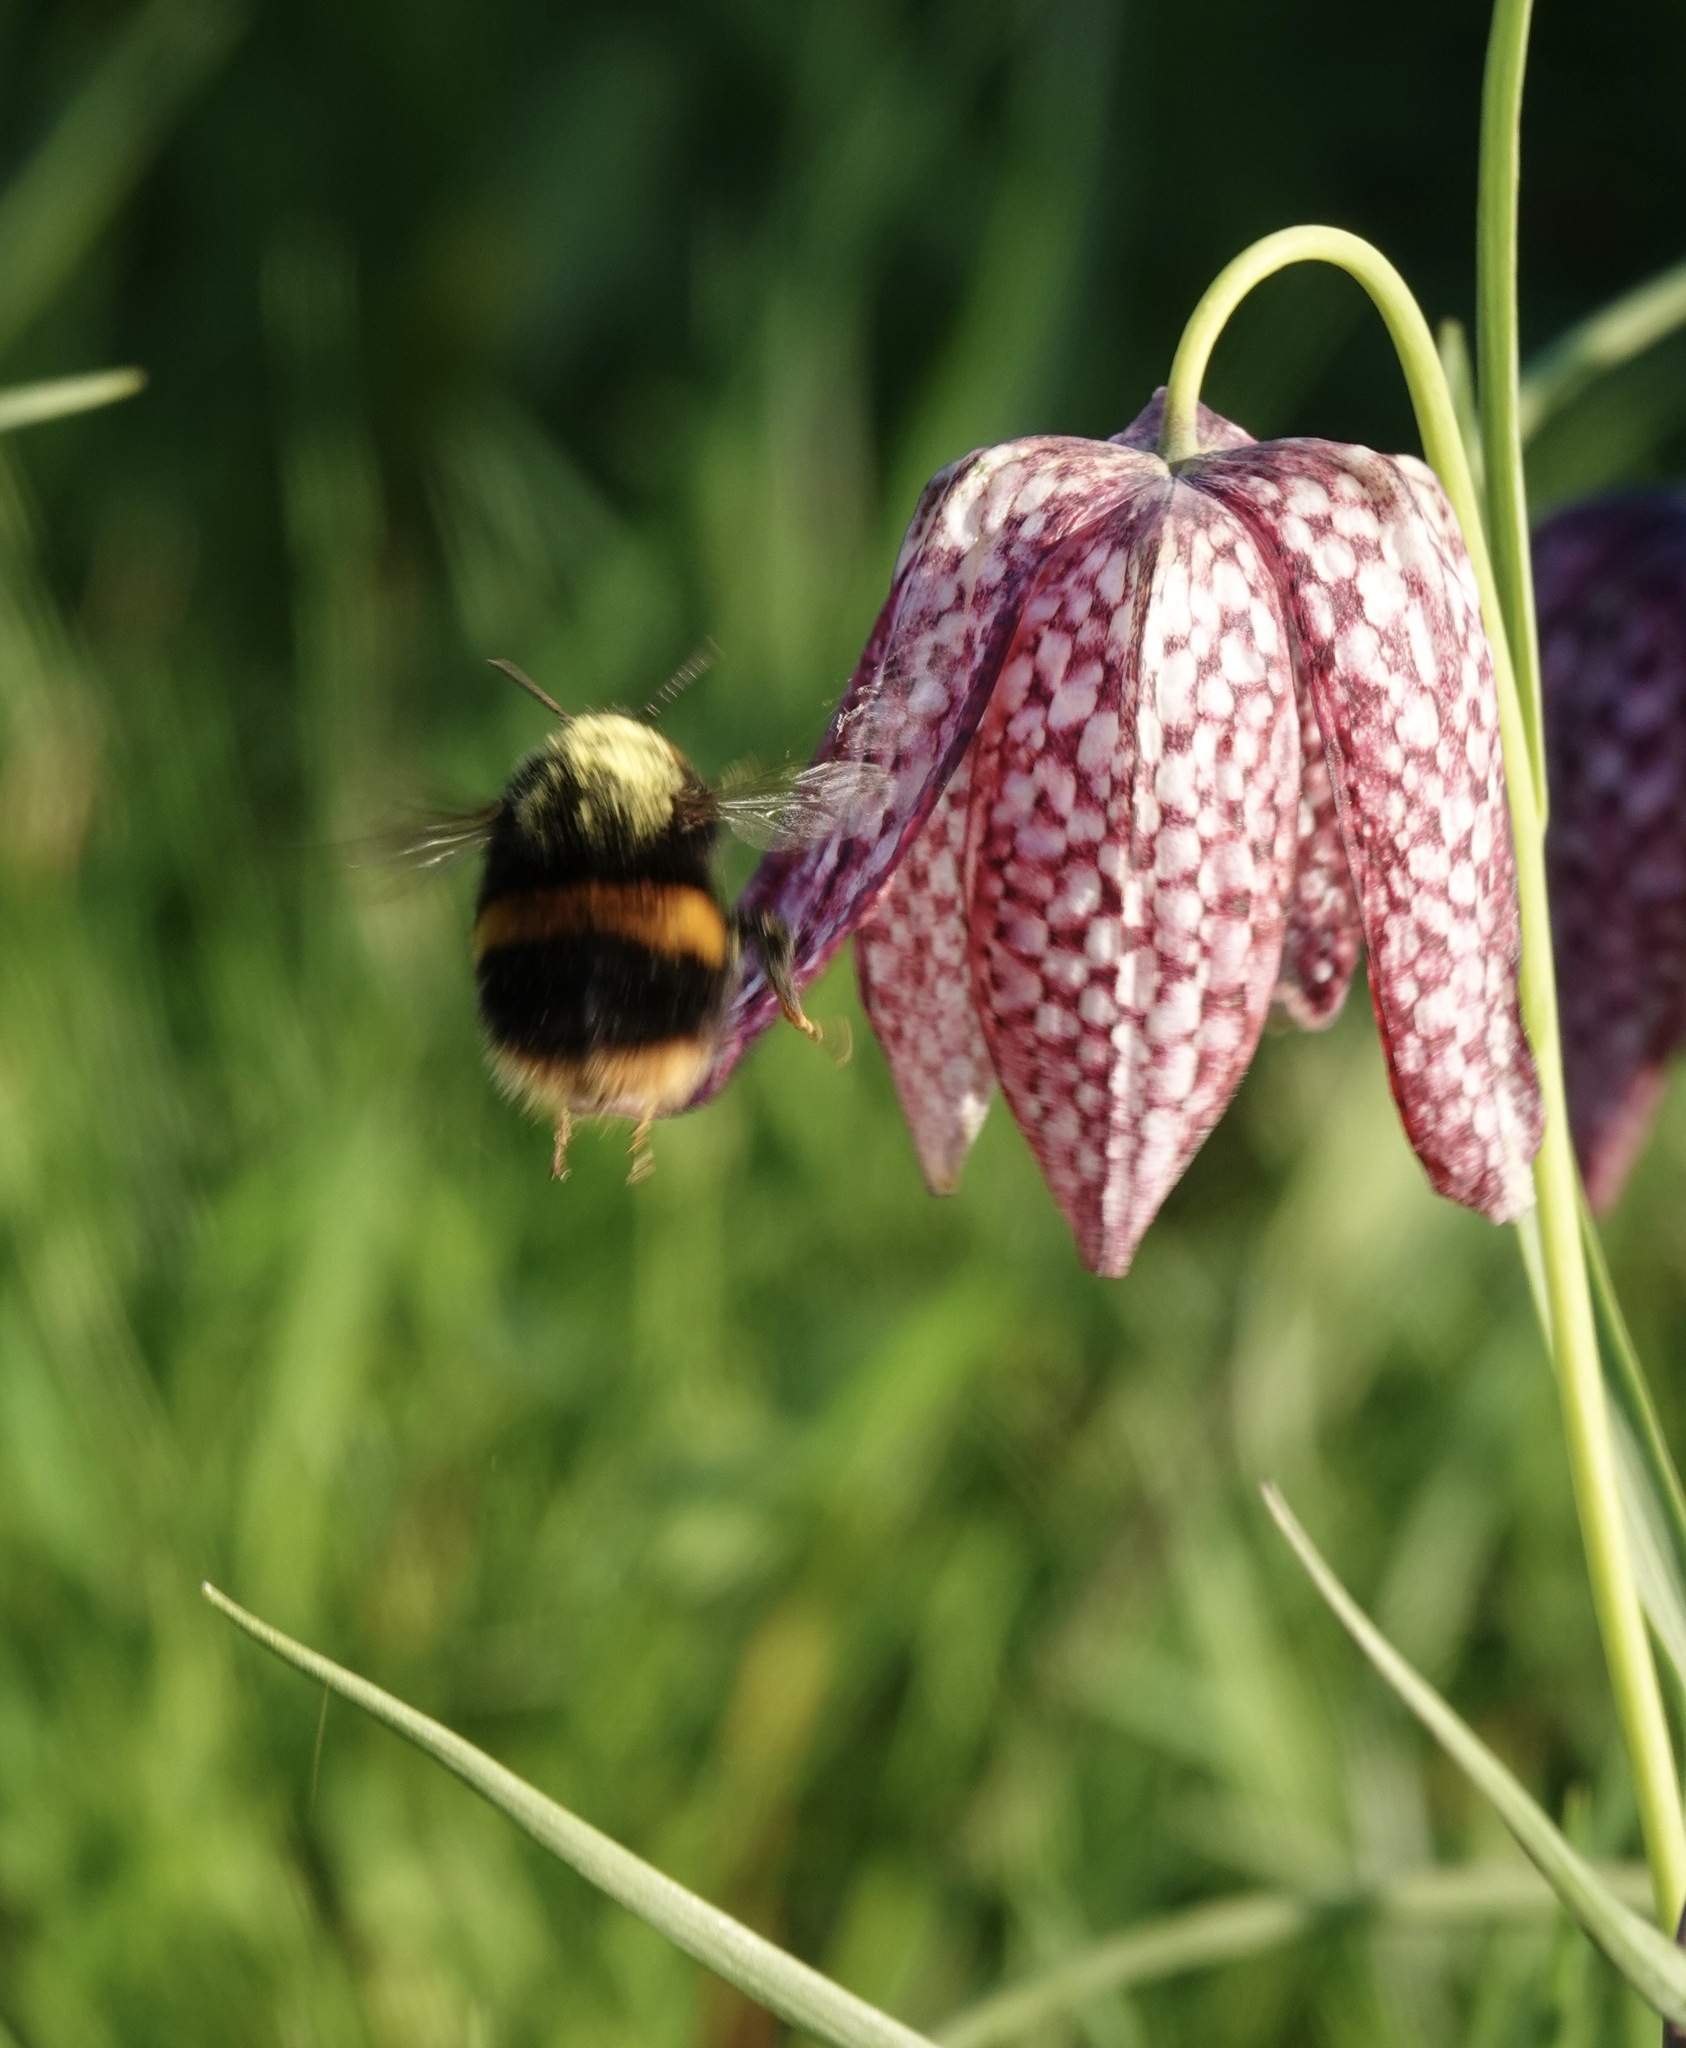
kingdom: Animalia
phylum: Arthropoda
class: Insecta
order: Hymenoptera
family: Apidae
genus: Bombus
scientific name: Bombus terrestris
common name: Buff-tailed bumblebee
